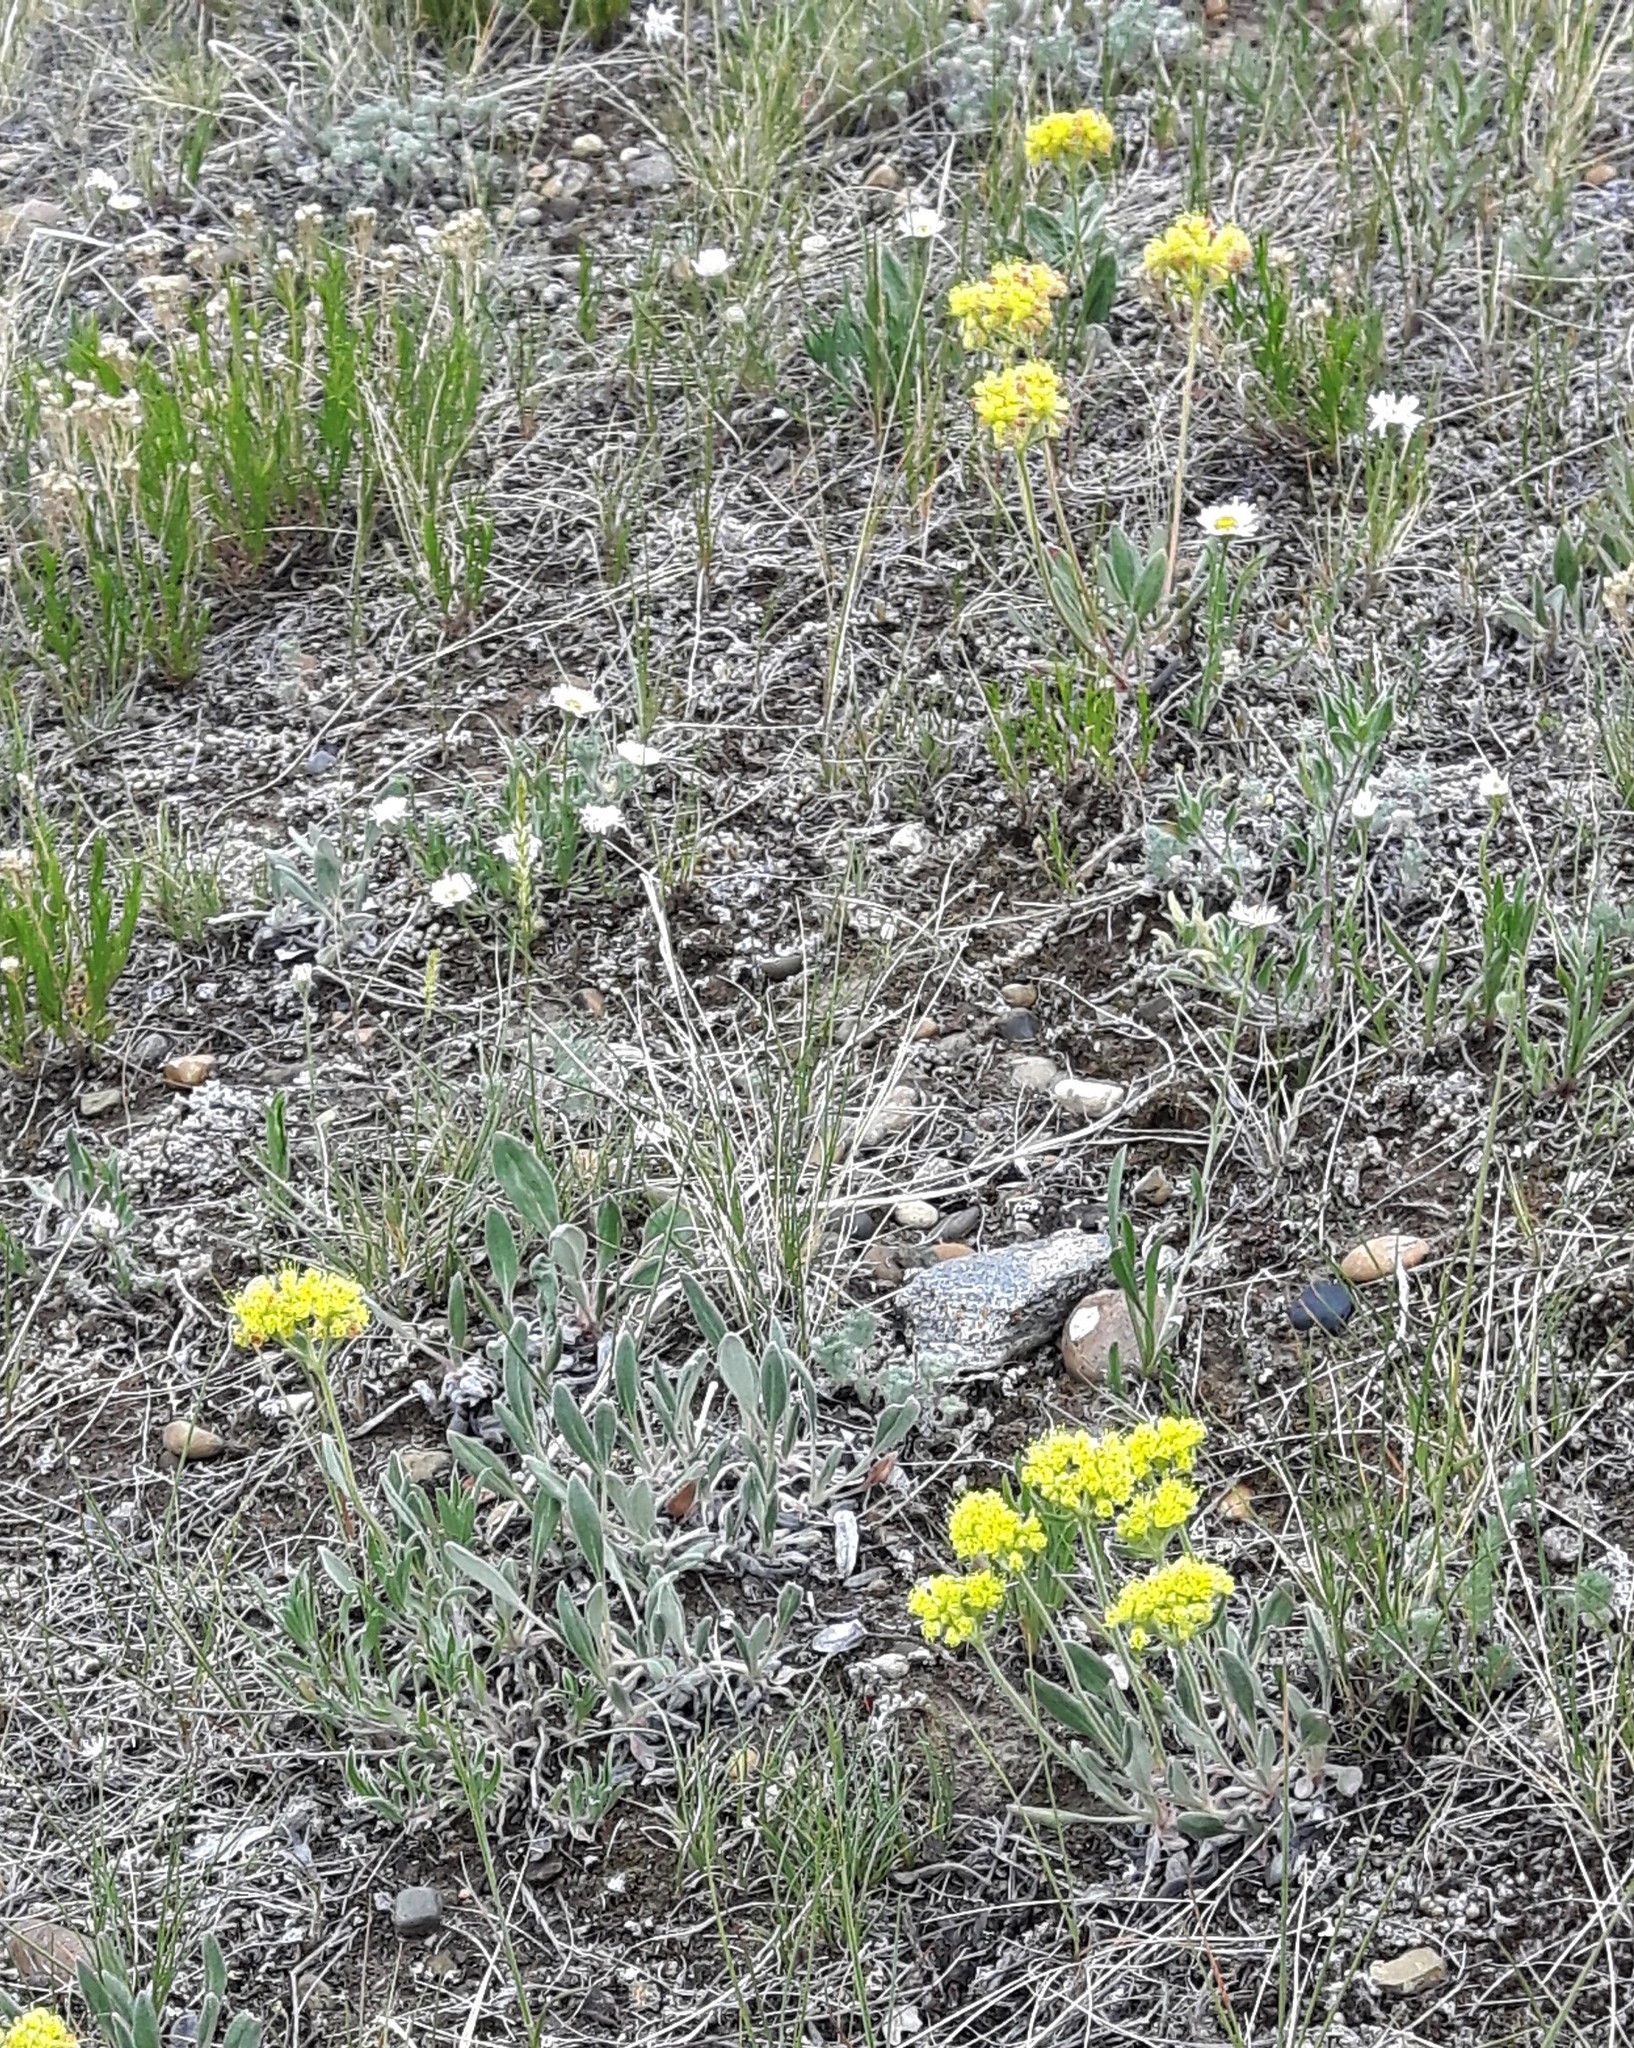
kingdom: Plantae
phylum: Tracheophyta
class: Magnoliopsida
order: Caryophyllales
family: Polygonaceae
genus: Eriogonum
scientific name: Eriogonum flavum
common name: Alpine golden wild buckwheat
